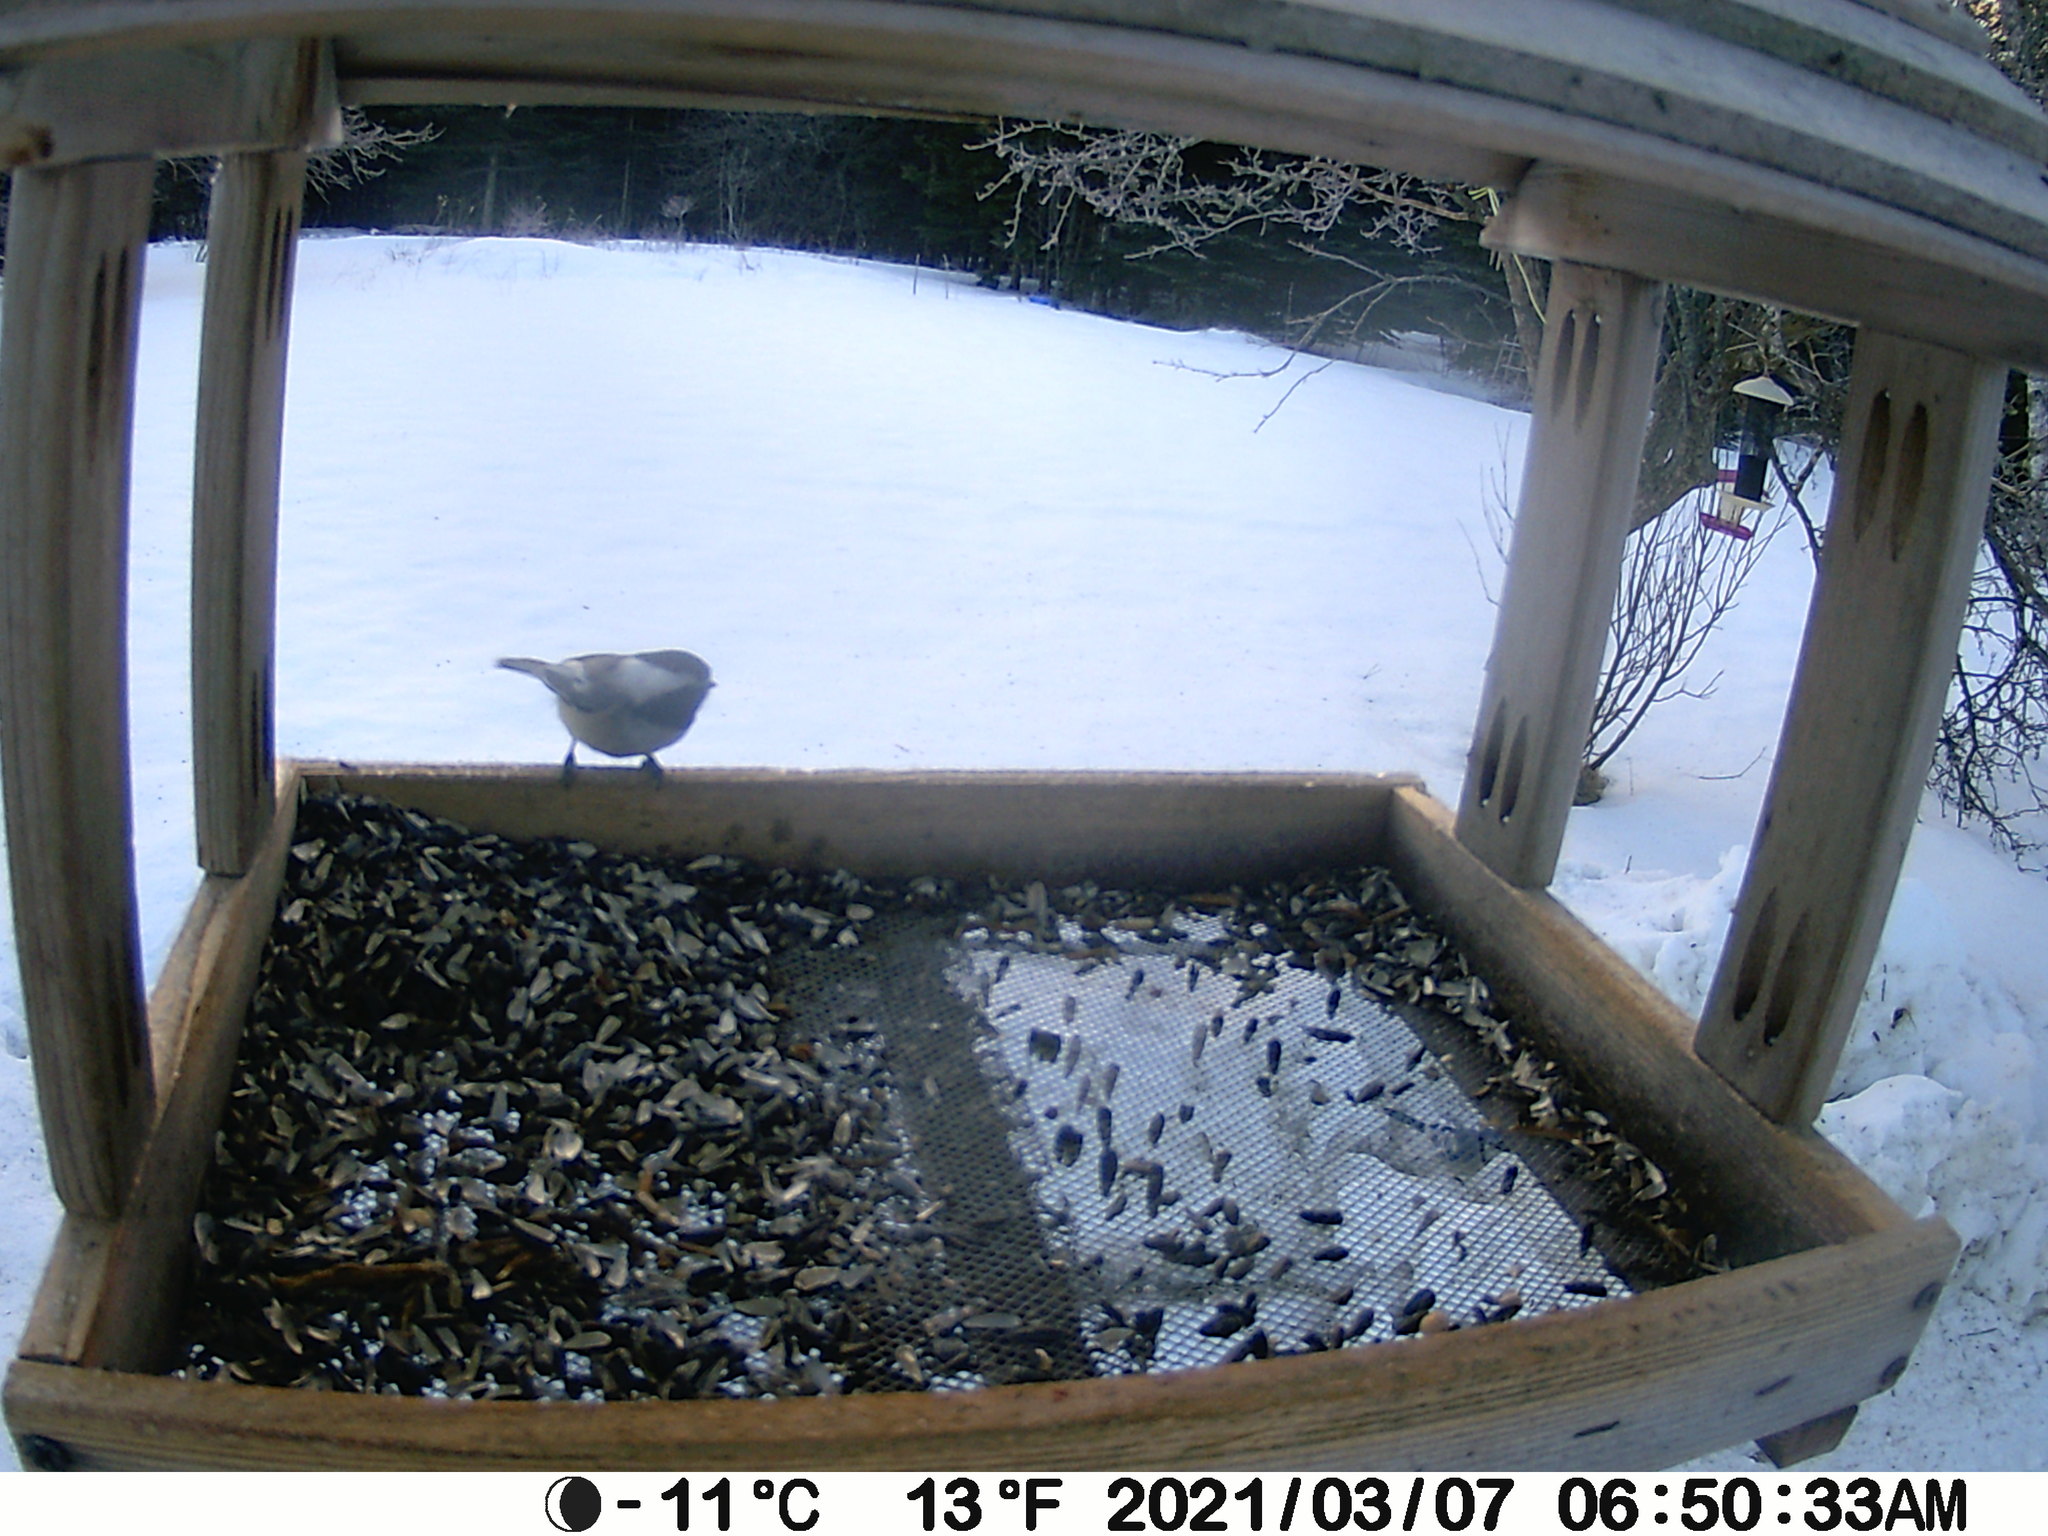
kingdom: Animalia
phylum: Chordata
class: Aves
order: Passeriformes
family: Paridae
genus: Poecile
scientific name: Poecile atricapillus
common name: Black-capped chickadee
